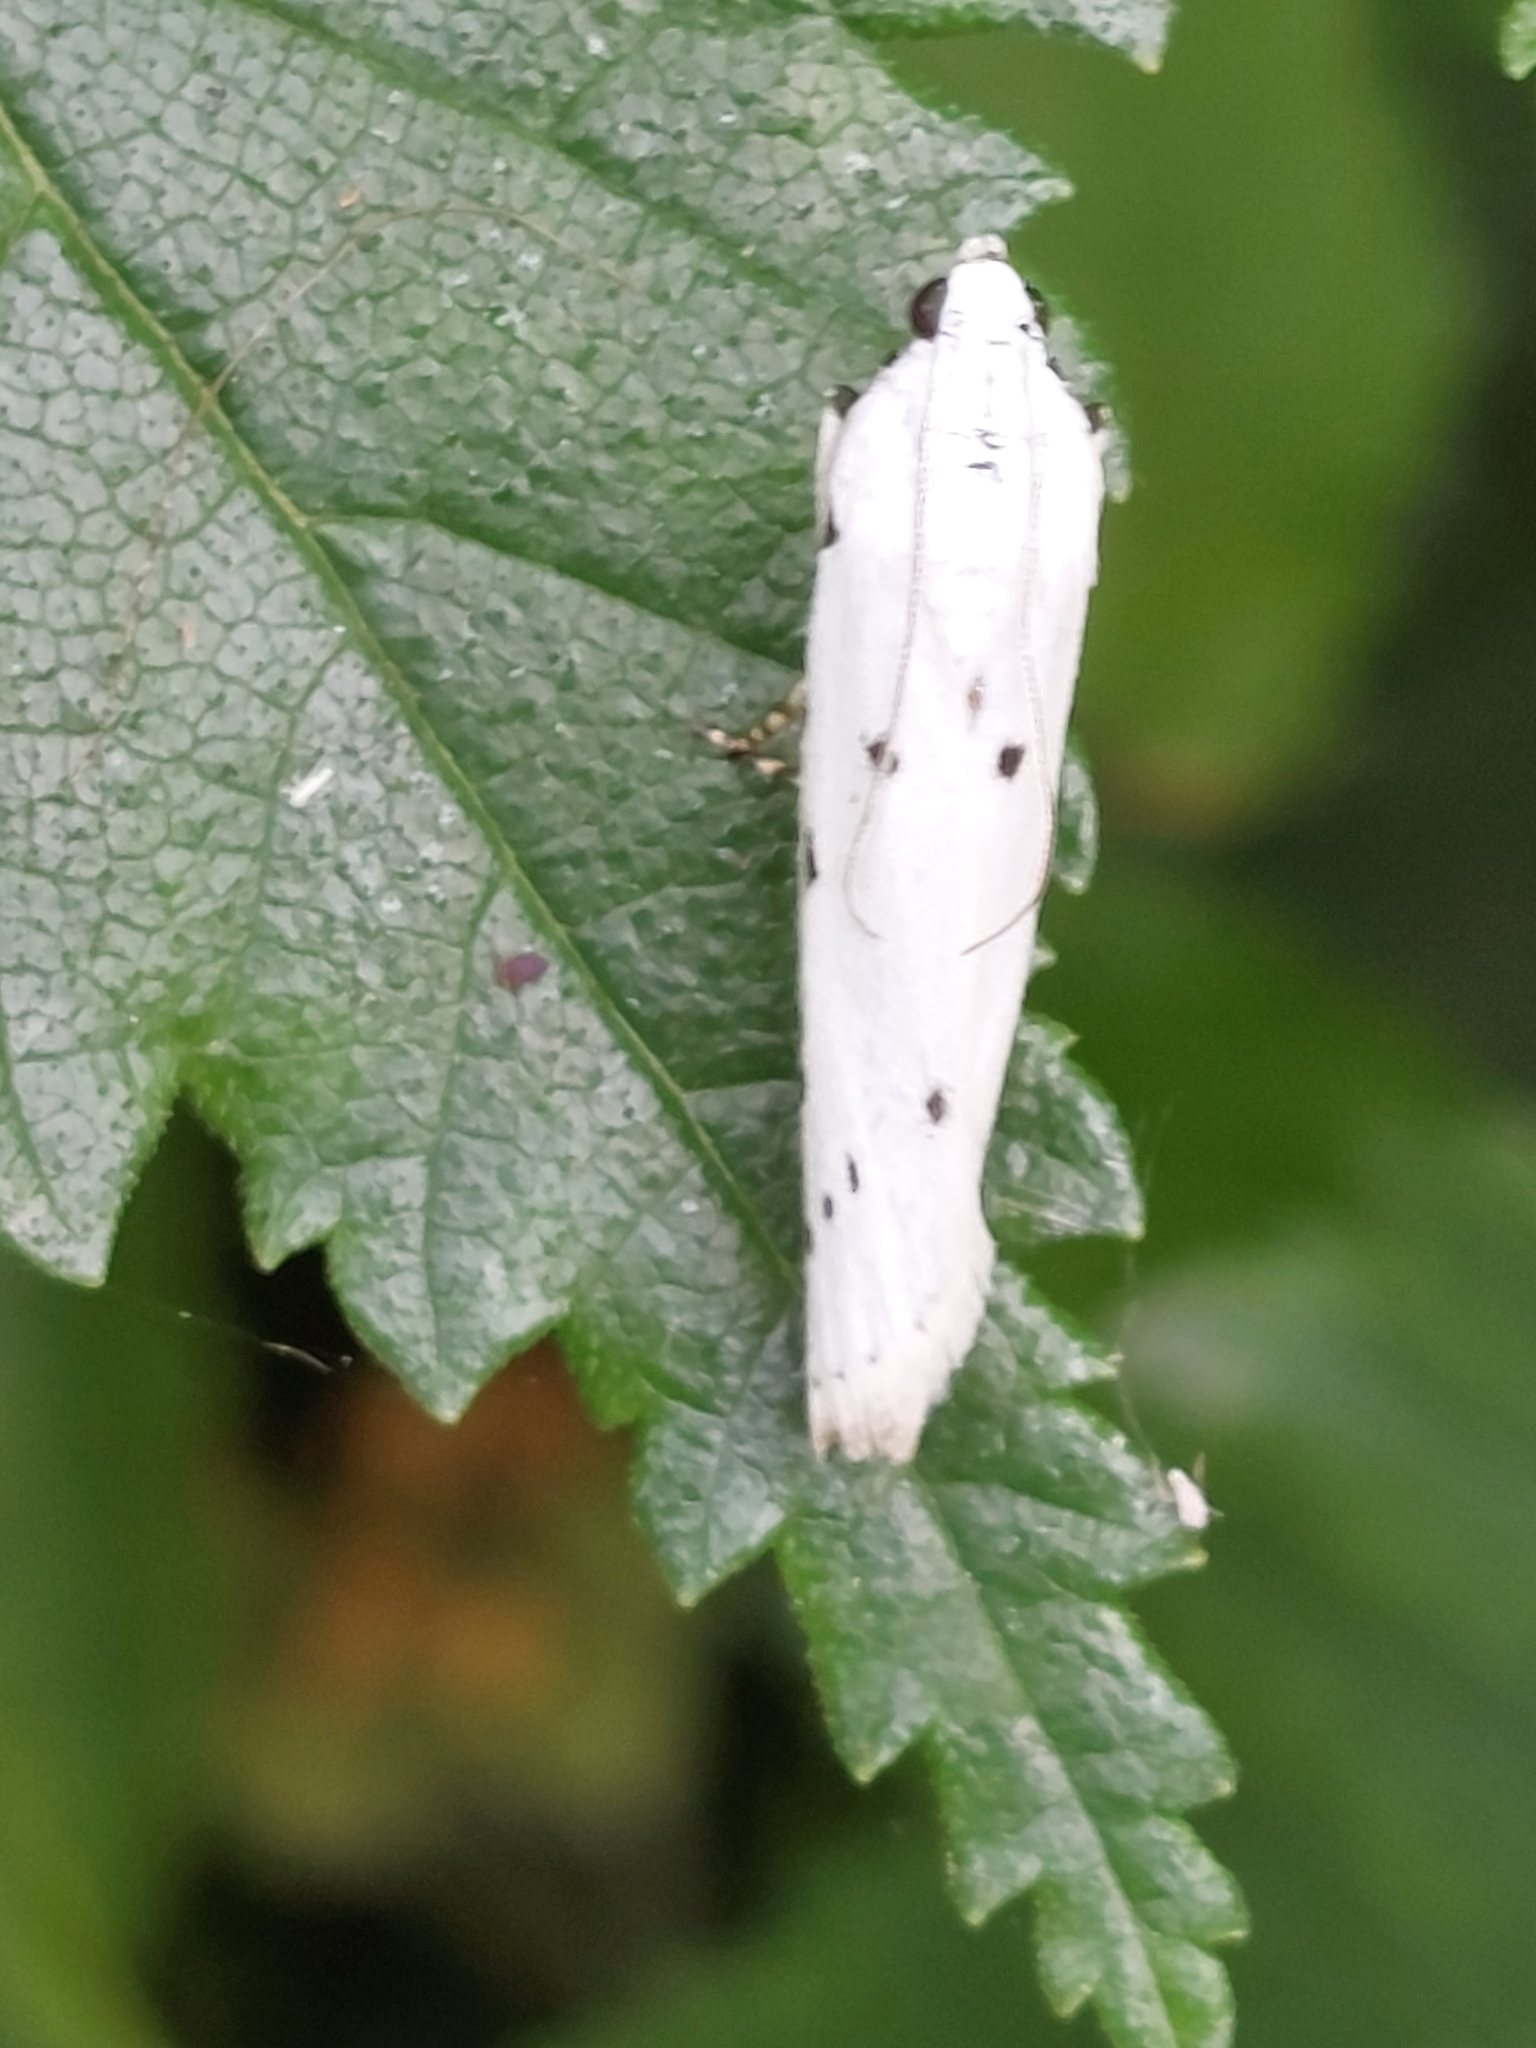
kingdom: Animalia
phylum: Arthropoda
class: Insecta
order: Lepidoptera
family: Pyralidae
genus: Myelois
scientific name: Myelois circumvoluta
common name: Thistle ermine
